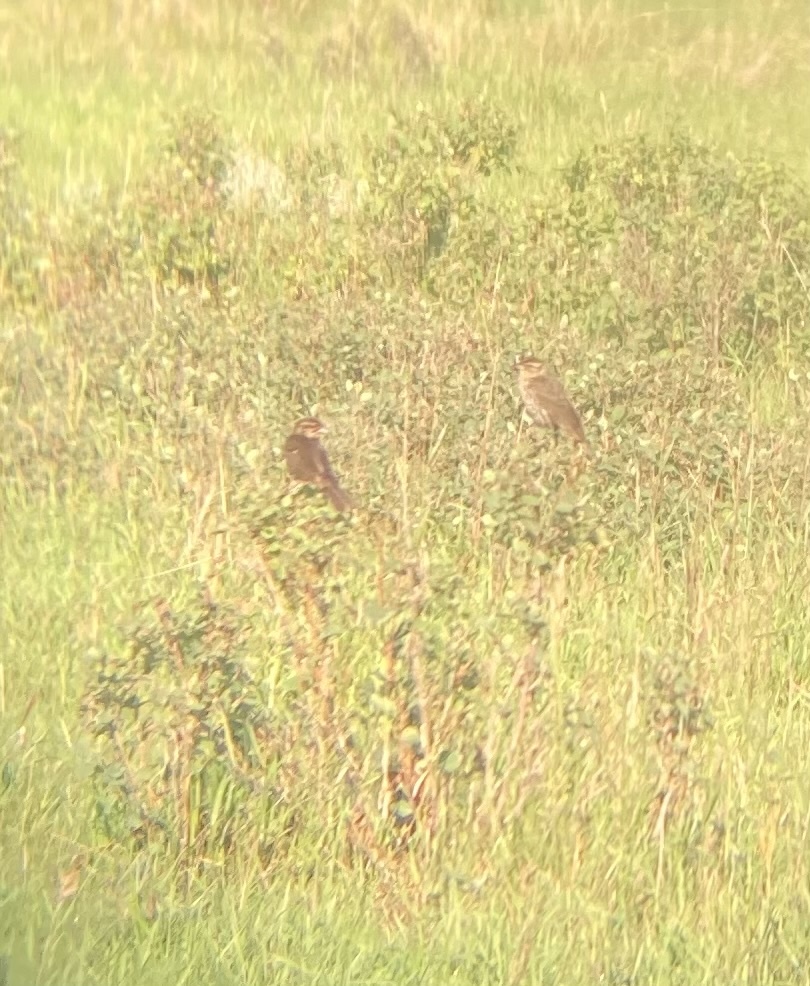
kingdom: Animalia
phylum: Chordata
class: Aves
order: Passeriformes
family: Icteridae
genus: Agelaius
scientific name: Agelaius phoeniceus
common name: Red-winged blackbird
